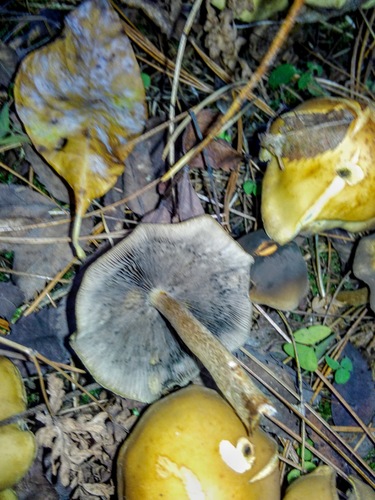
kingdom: Fungi
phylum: Basidiomycota
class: Agaricomycetes
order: Agaricales
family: Strophariaceae
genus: Hypholoma
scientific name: Hypholoma capnoides
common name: Conifer tuft
